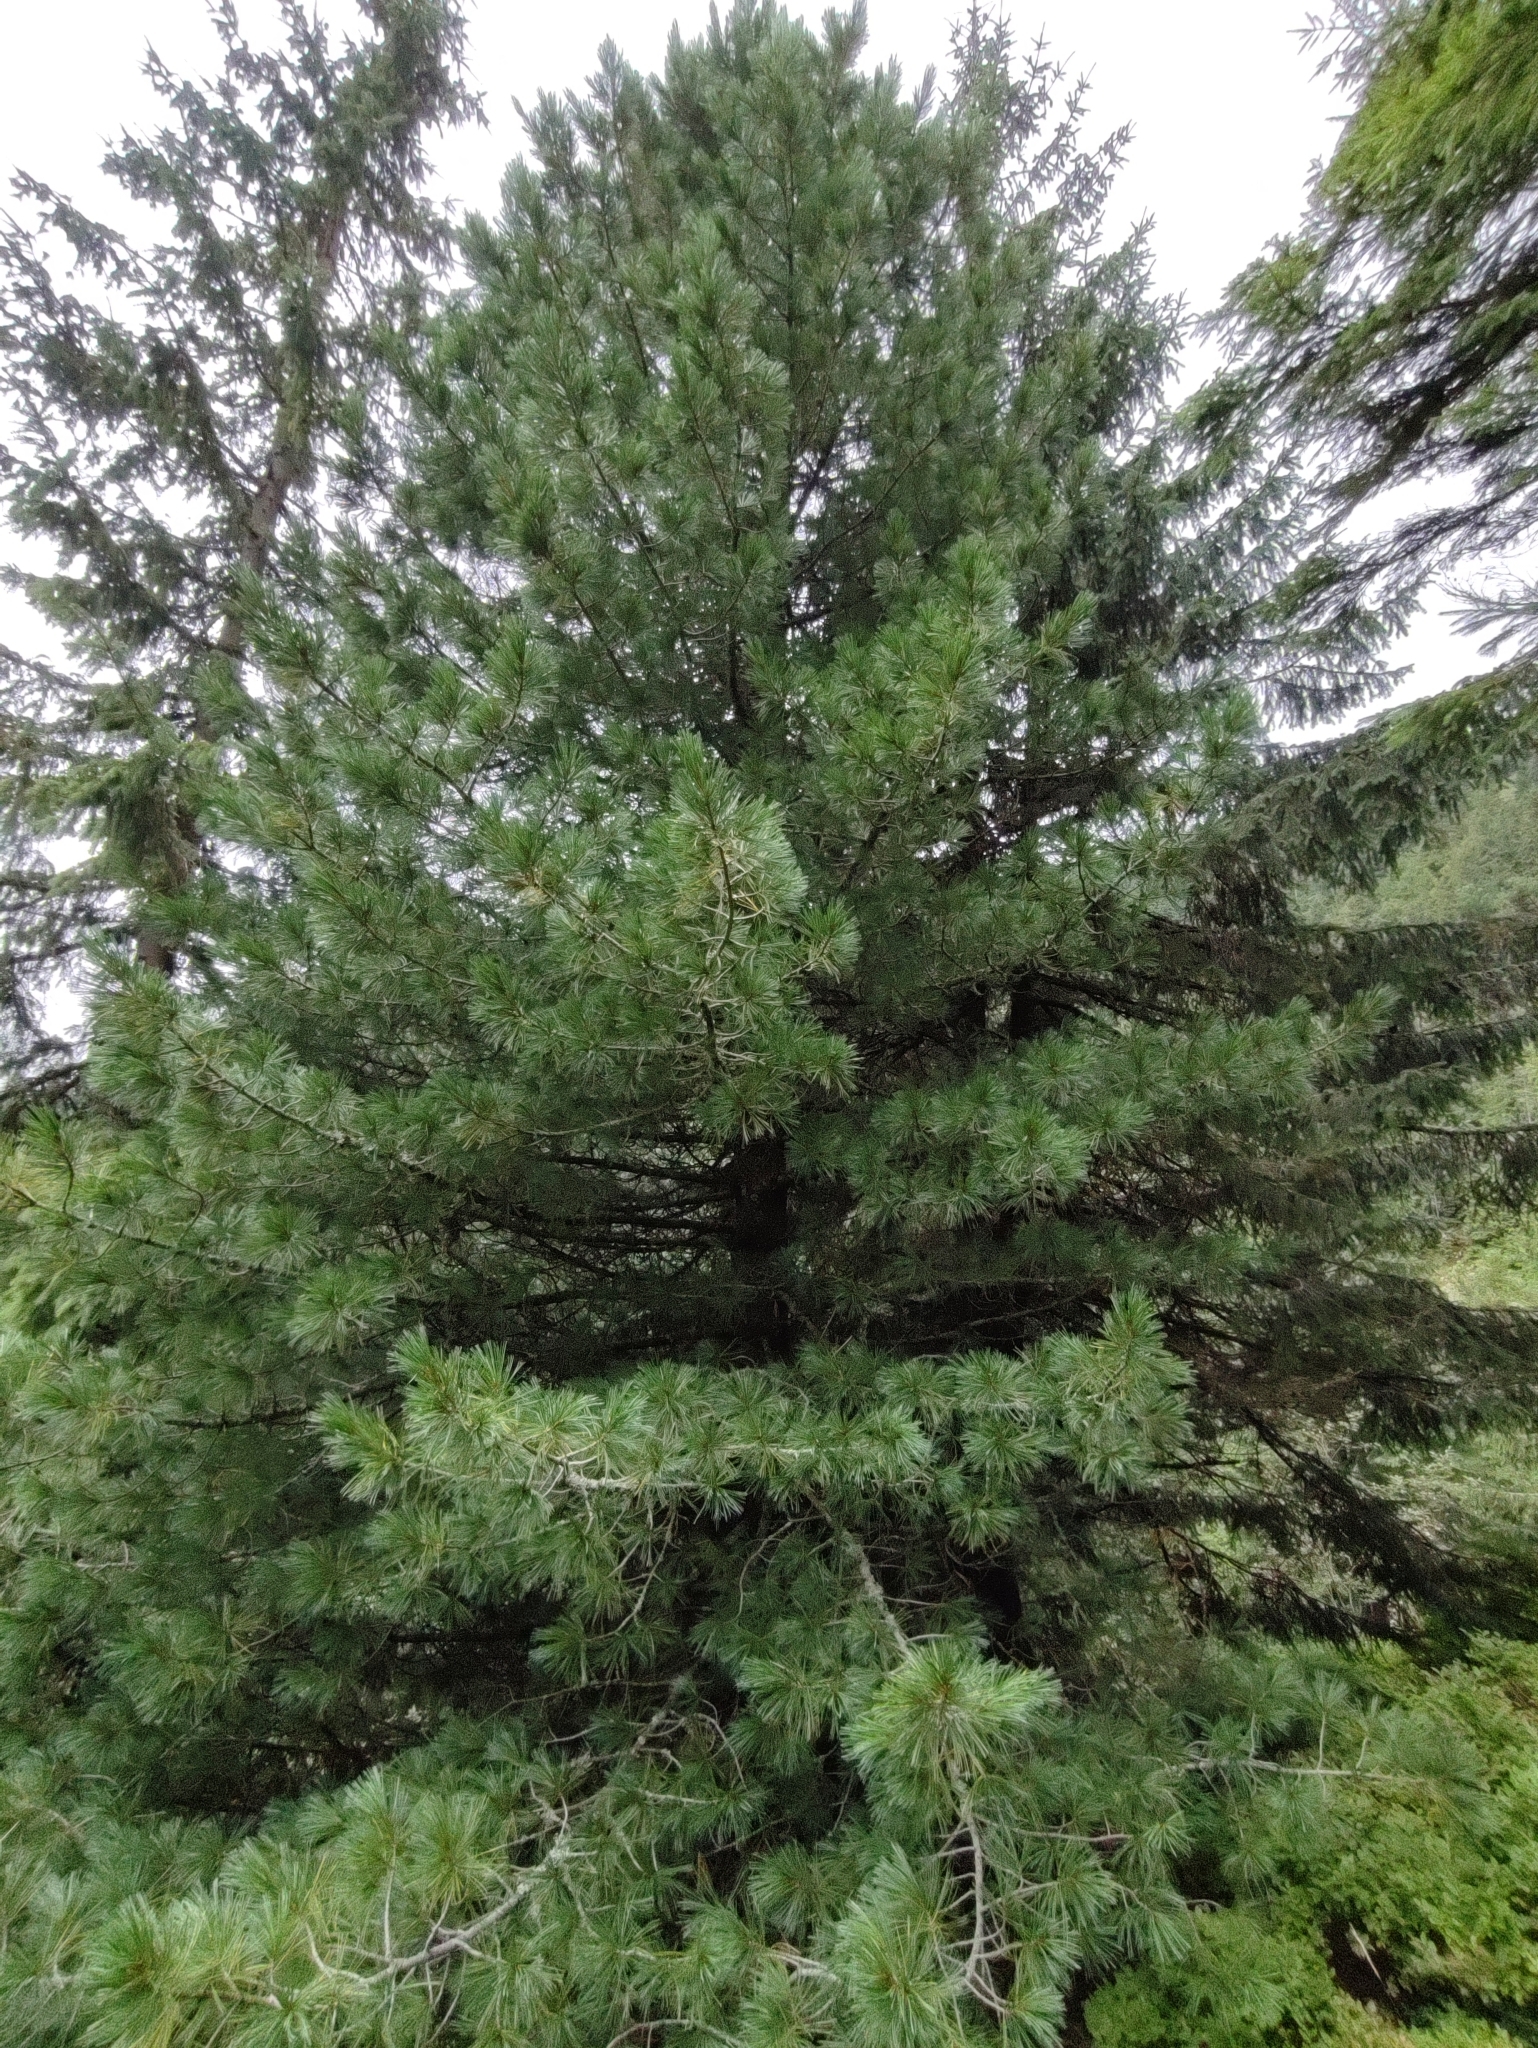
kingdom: Plantae
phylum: Tracheophyta
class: Pinopsida
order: Pinales
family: Pinaceae
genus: Pinus
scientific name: Pinus cembra
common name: Arolla pine
